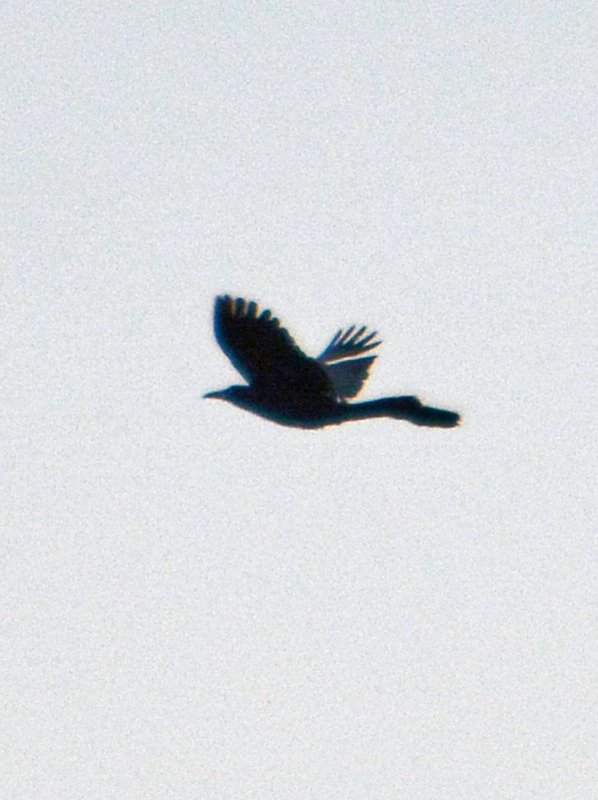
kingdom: Animalia
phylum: Chordata
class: Aves
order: Passeriformes
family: Icteridae
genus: Quiscalus
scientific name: Quiscalus mexicanus
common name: Great-tailed grackle
